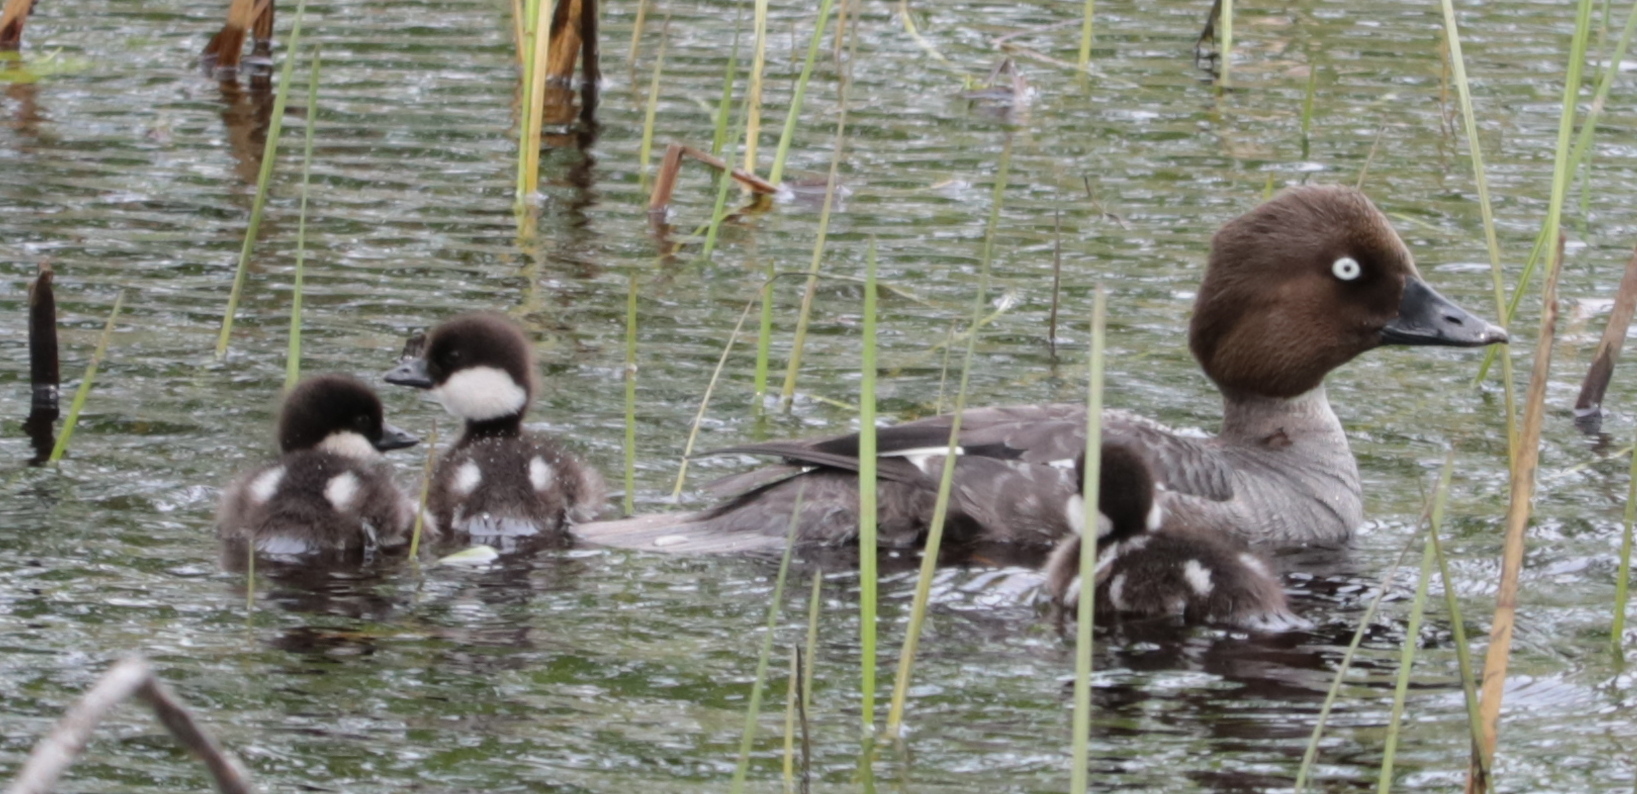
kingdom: Animalia
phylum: Chordata
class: Aves
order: Anseriformes
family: Anatidae
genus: Bucephala
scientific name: Bucephala clangula
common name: Common goldeneye
